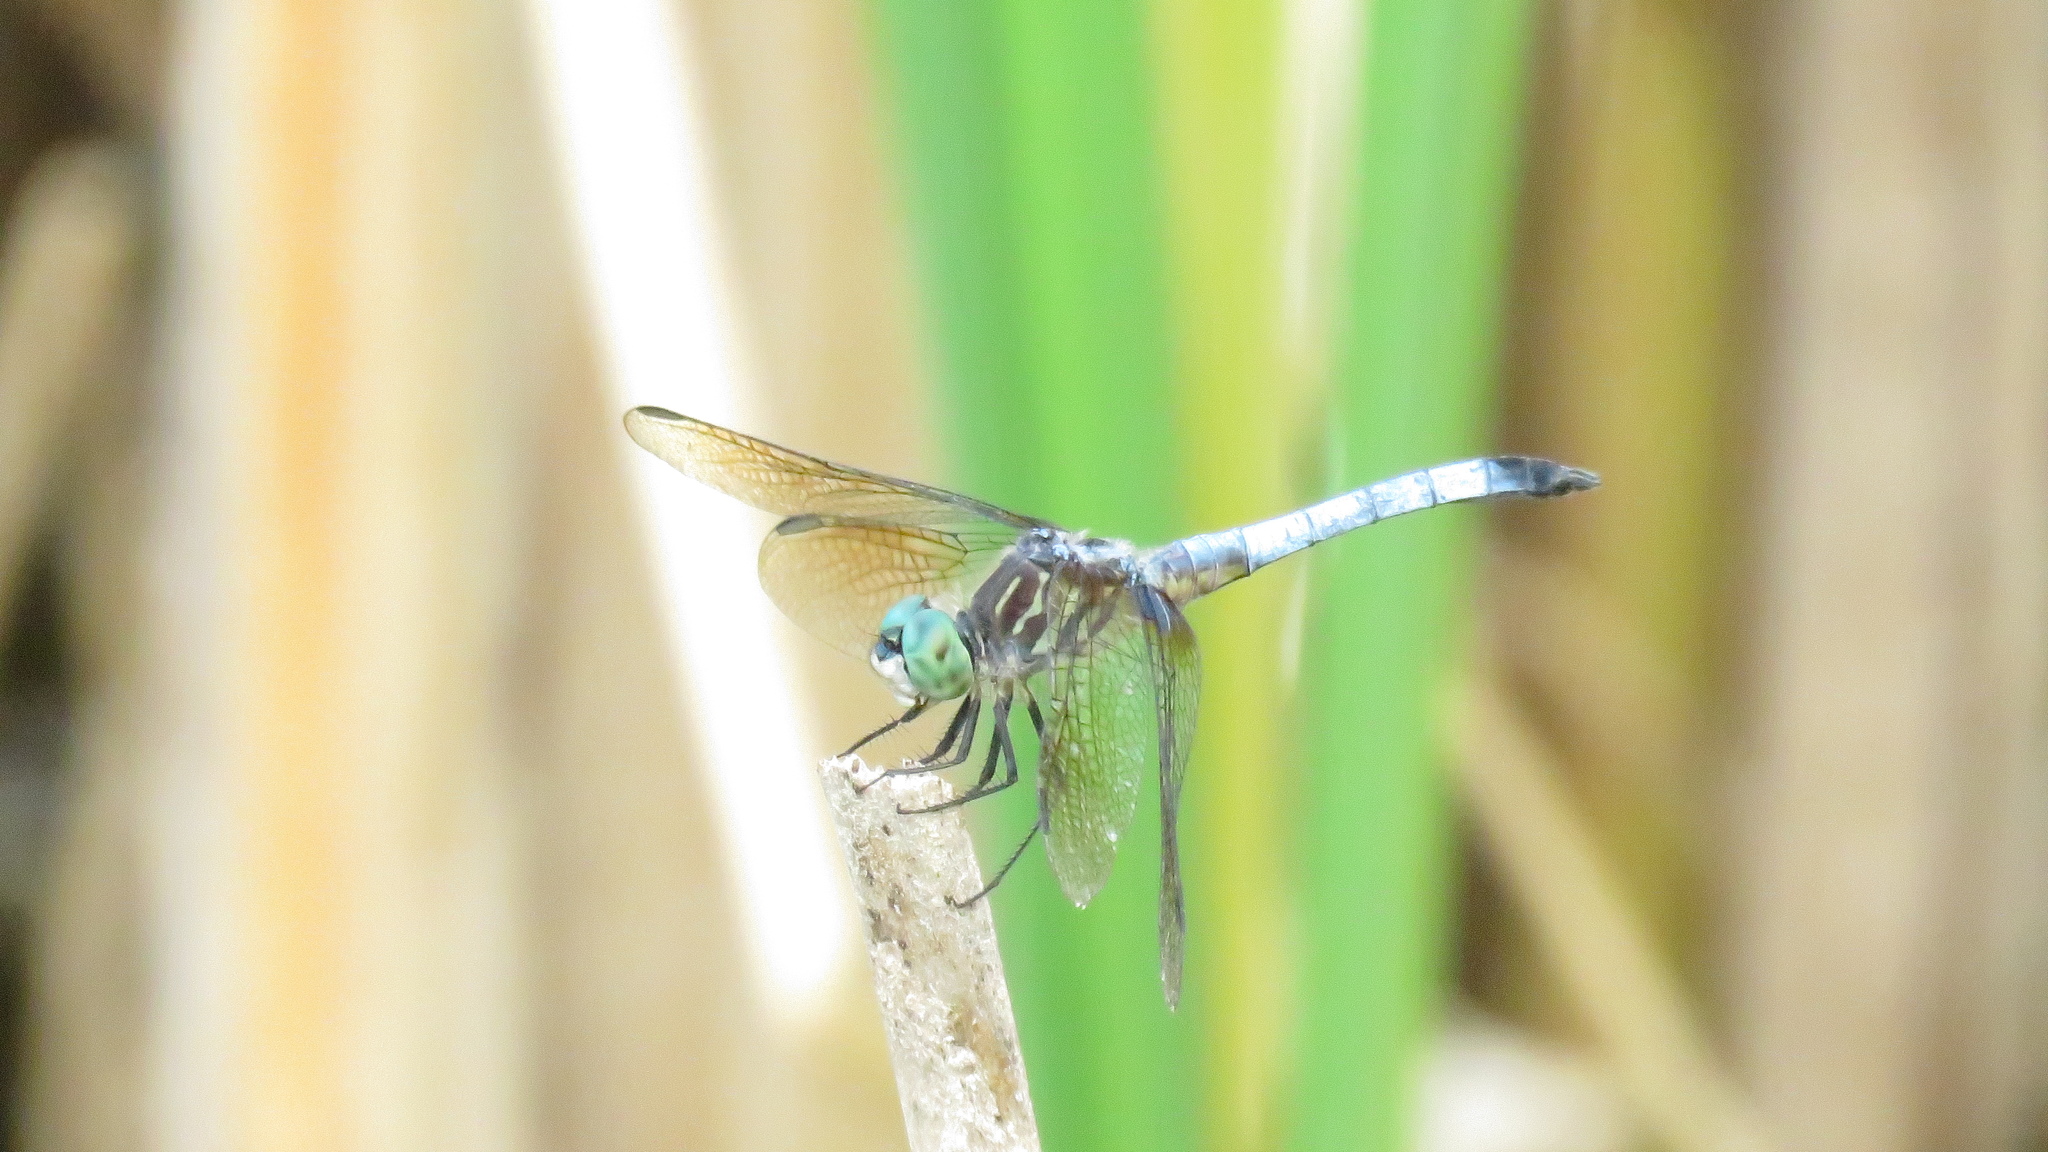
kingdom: Animalia
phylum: Arthropoda
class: Insecta
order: Odonata
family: Libellulidae
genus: Pachydiplax
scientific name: Pachydiplax longipennis
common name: Blue dasher
